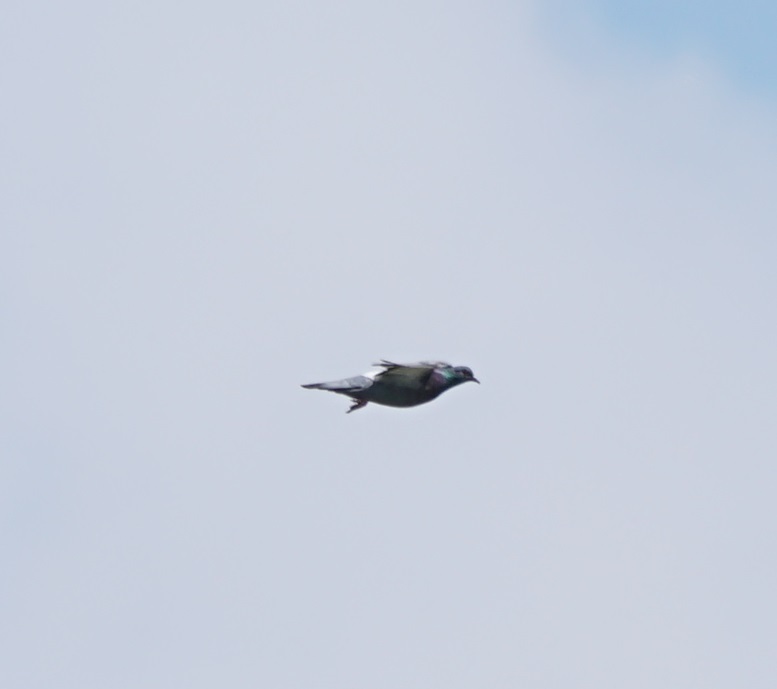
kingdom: Animalia
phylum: Chordata
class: Aves
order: Columbiformes
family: Columbidae
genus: Columba
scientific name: Columba livia
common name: Rock pigeon
